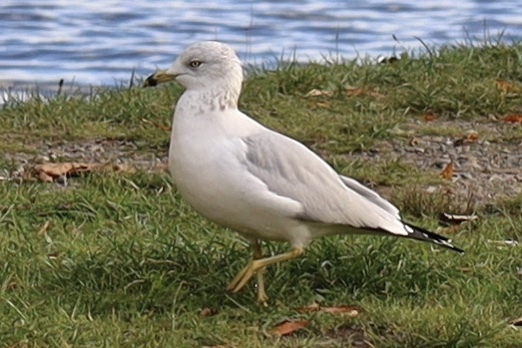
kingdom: Animalia
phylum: Chordata
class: Aves
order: Charadriiformes
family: Laridae
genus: Larus
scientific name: Larus delawarensis
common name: Ring-billed gull
